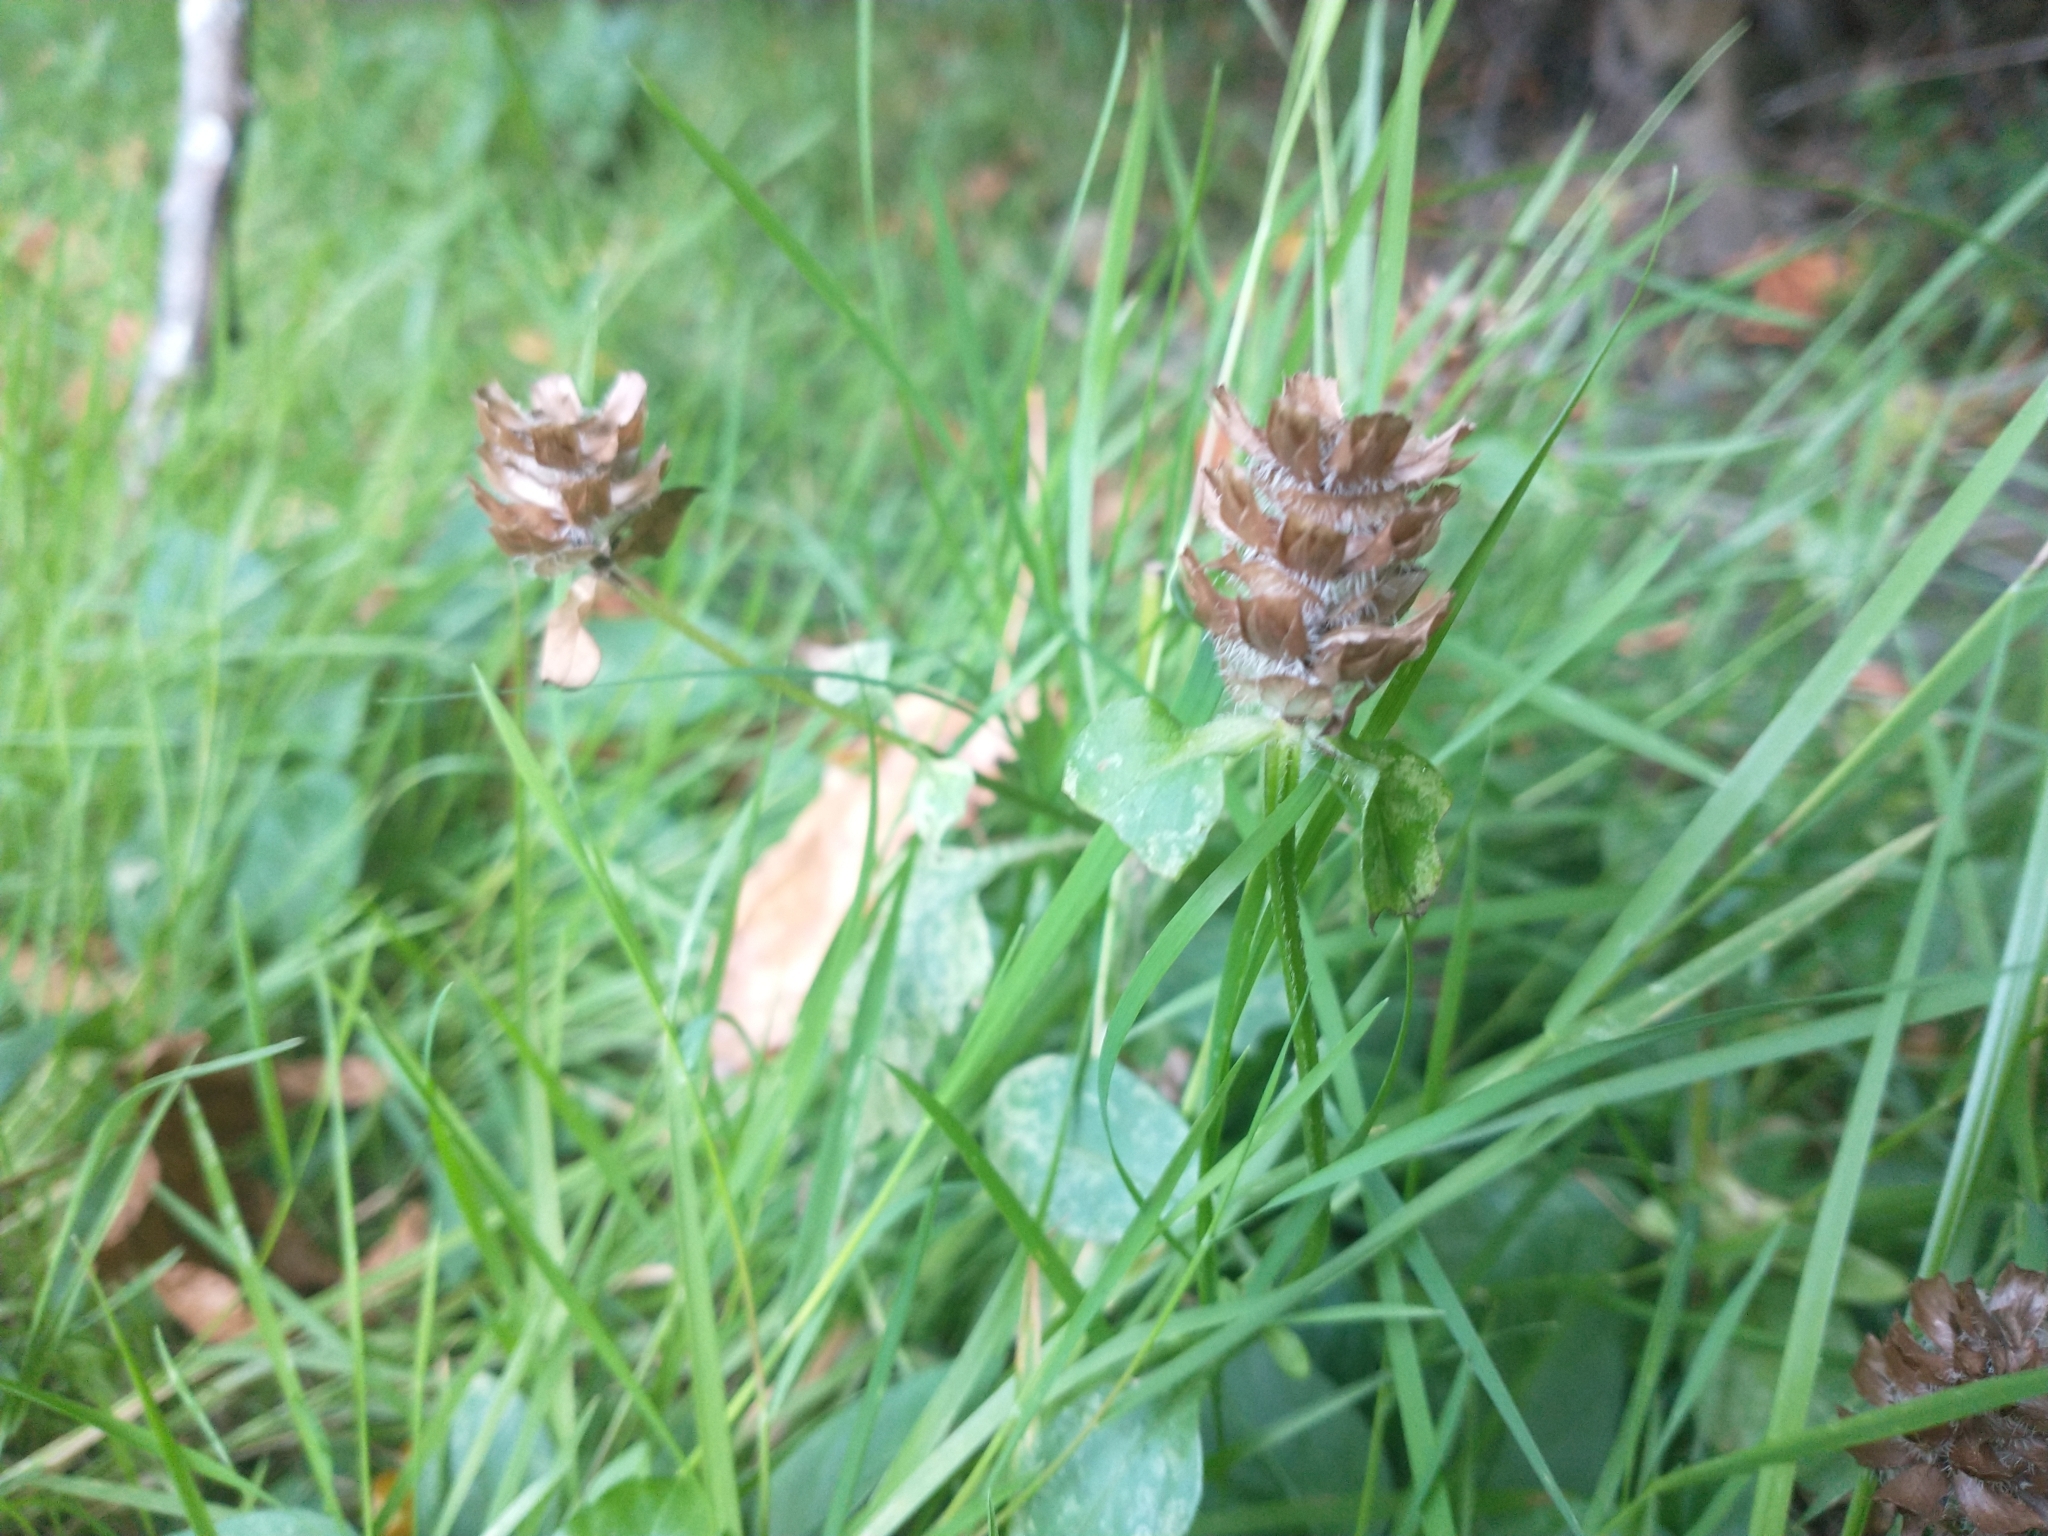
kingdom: Plantae
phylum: Tracheophyta
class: Magnoliopsida
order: Lamiales
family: Lamiaceae
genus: Prunella
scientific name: Prunella vulgaris
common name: Heal-all
